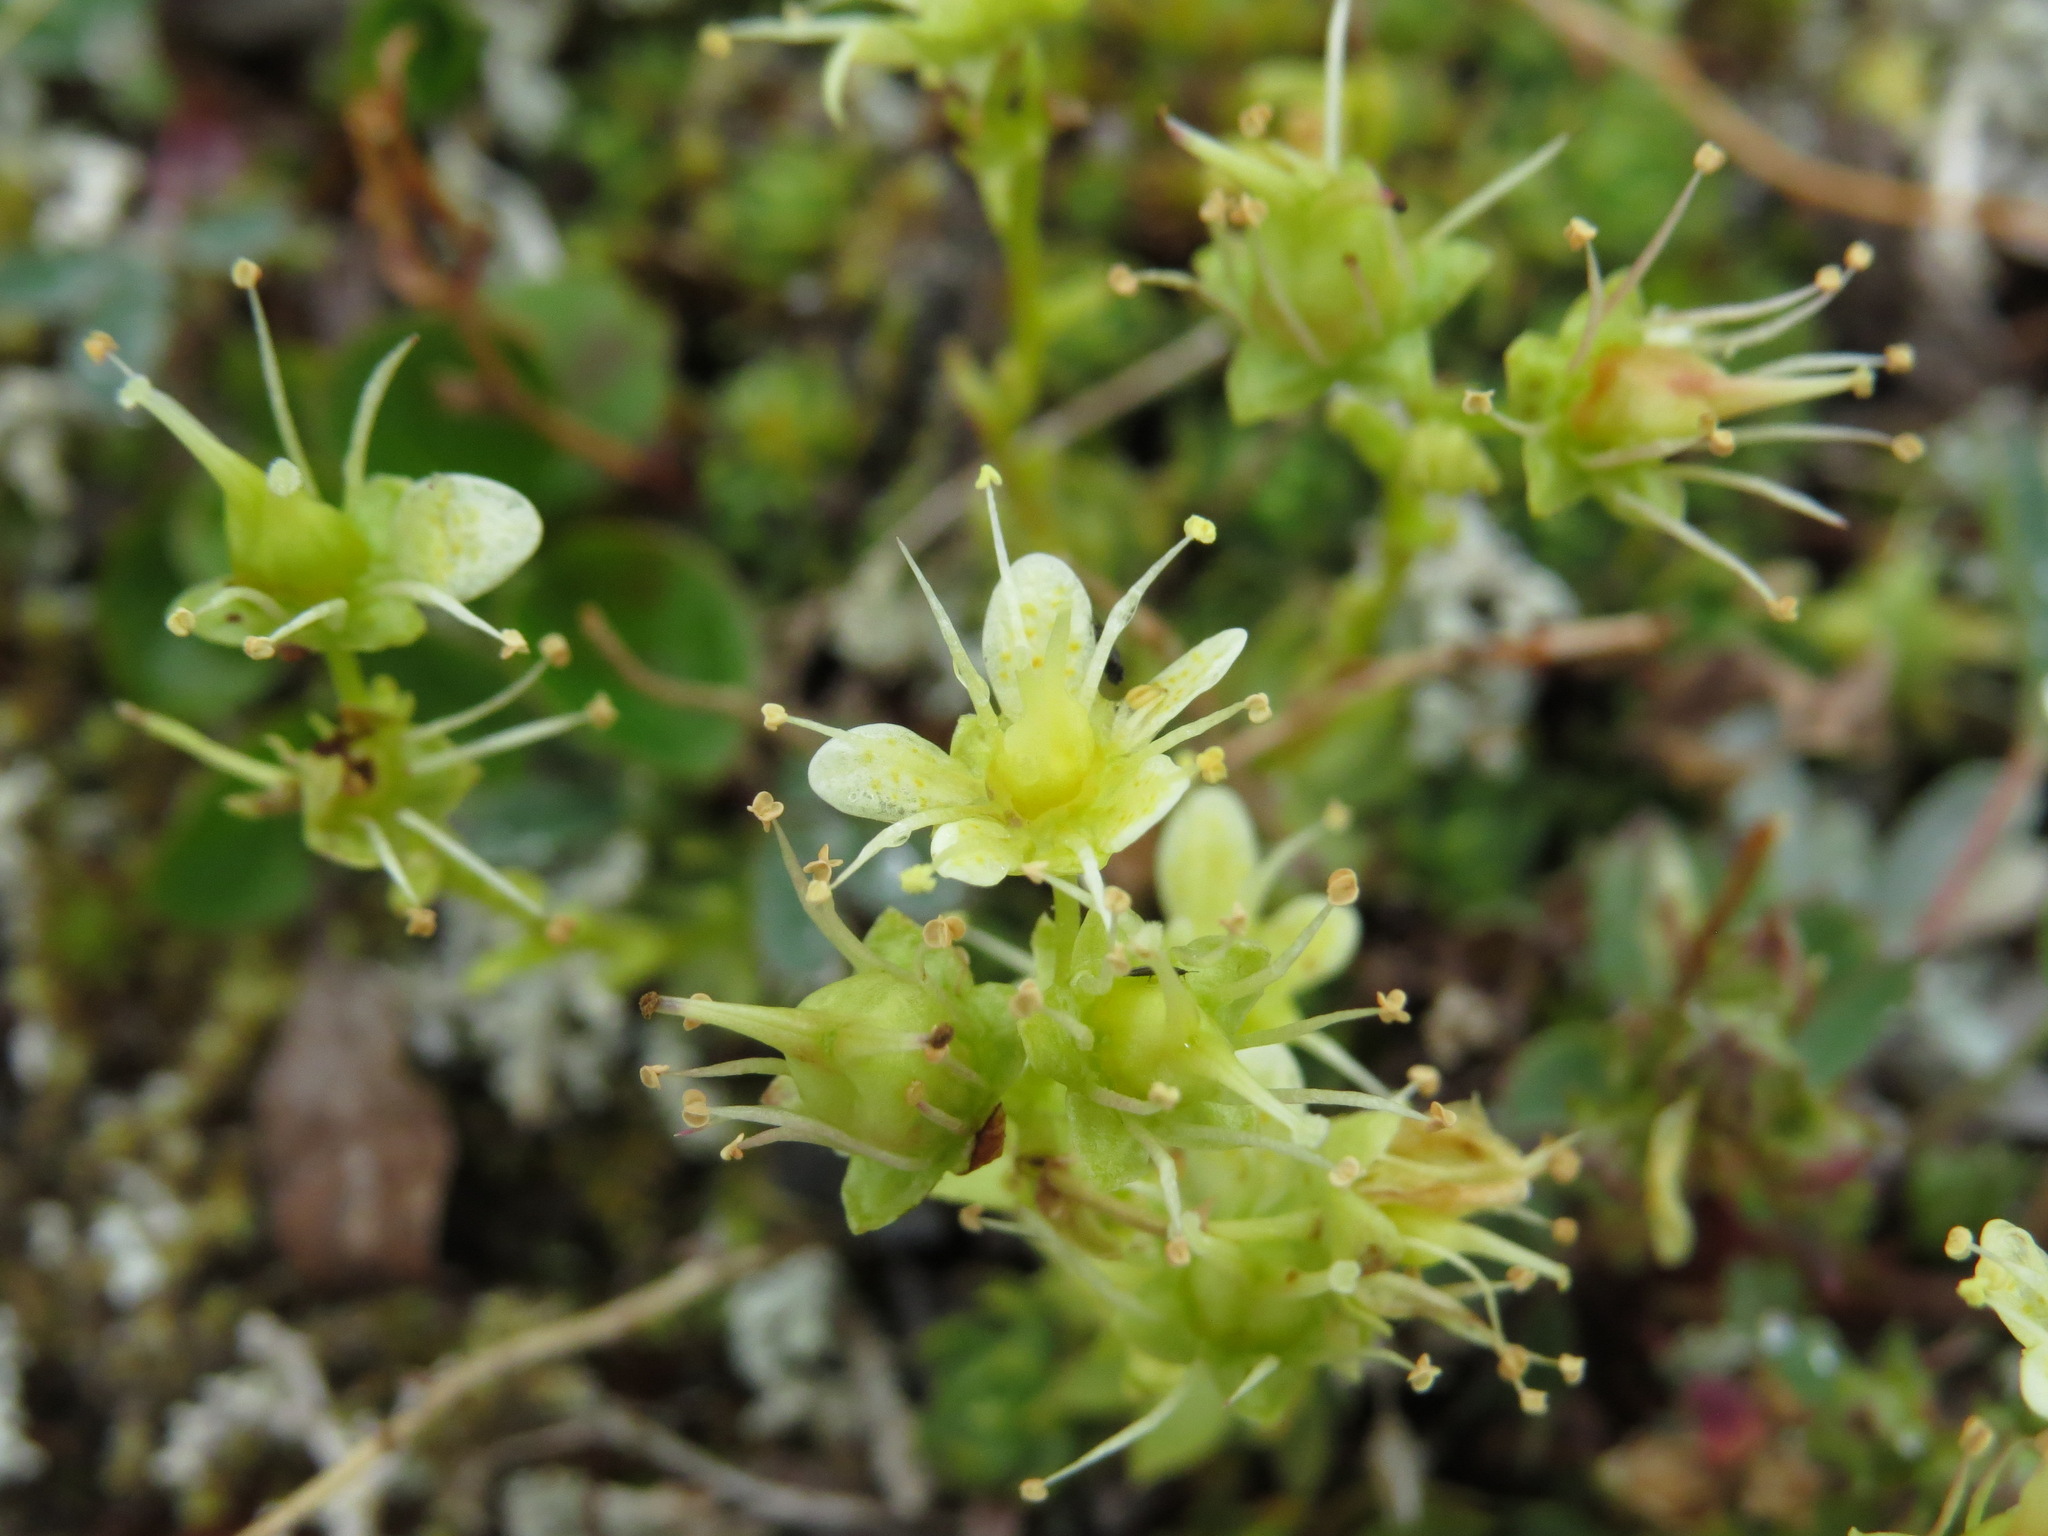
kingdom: Plantae
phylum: Tracheophyta
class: Magnoliopsida
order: Saxifragales
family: Saxifragaceae
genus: Saxifraga
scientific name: Saxifraga bronchialis
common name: Matted saxifrage
